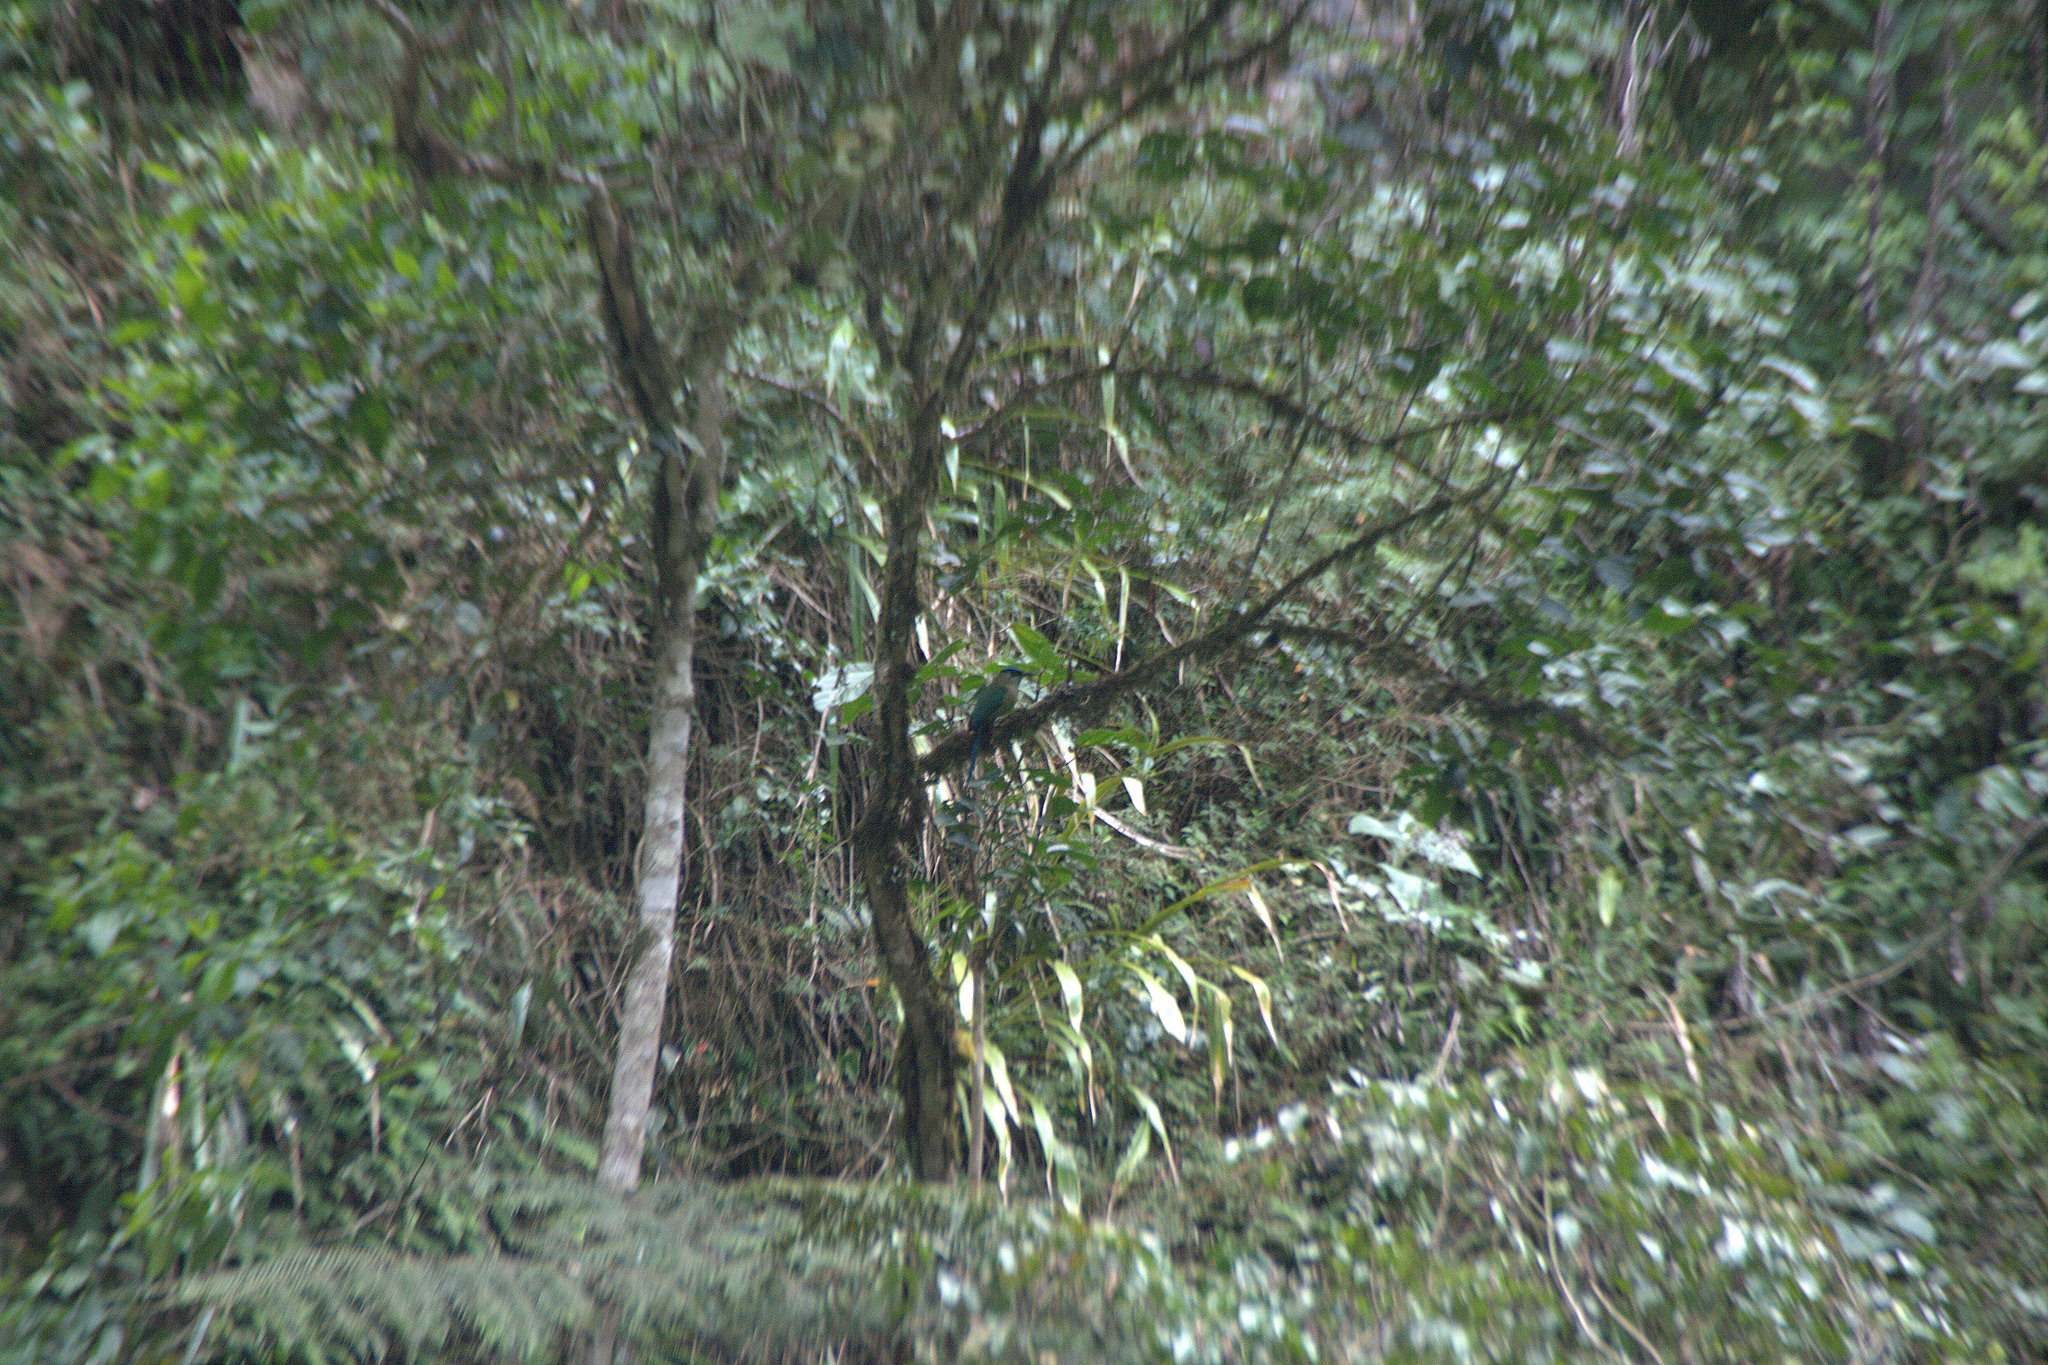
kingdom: Animalia
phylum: Chordata
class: Aves
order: Coraciiformes
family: Momotidae
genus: Momotus
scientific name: Momotus aequatorialis
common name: Andean motmot
